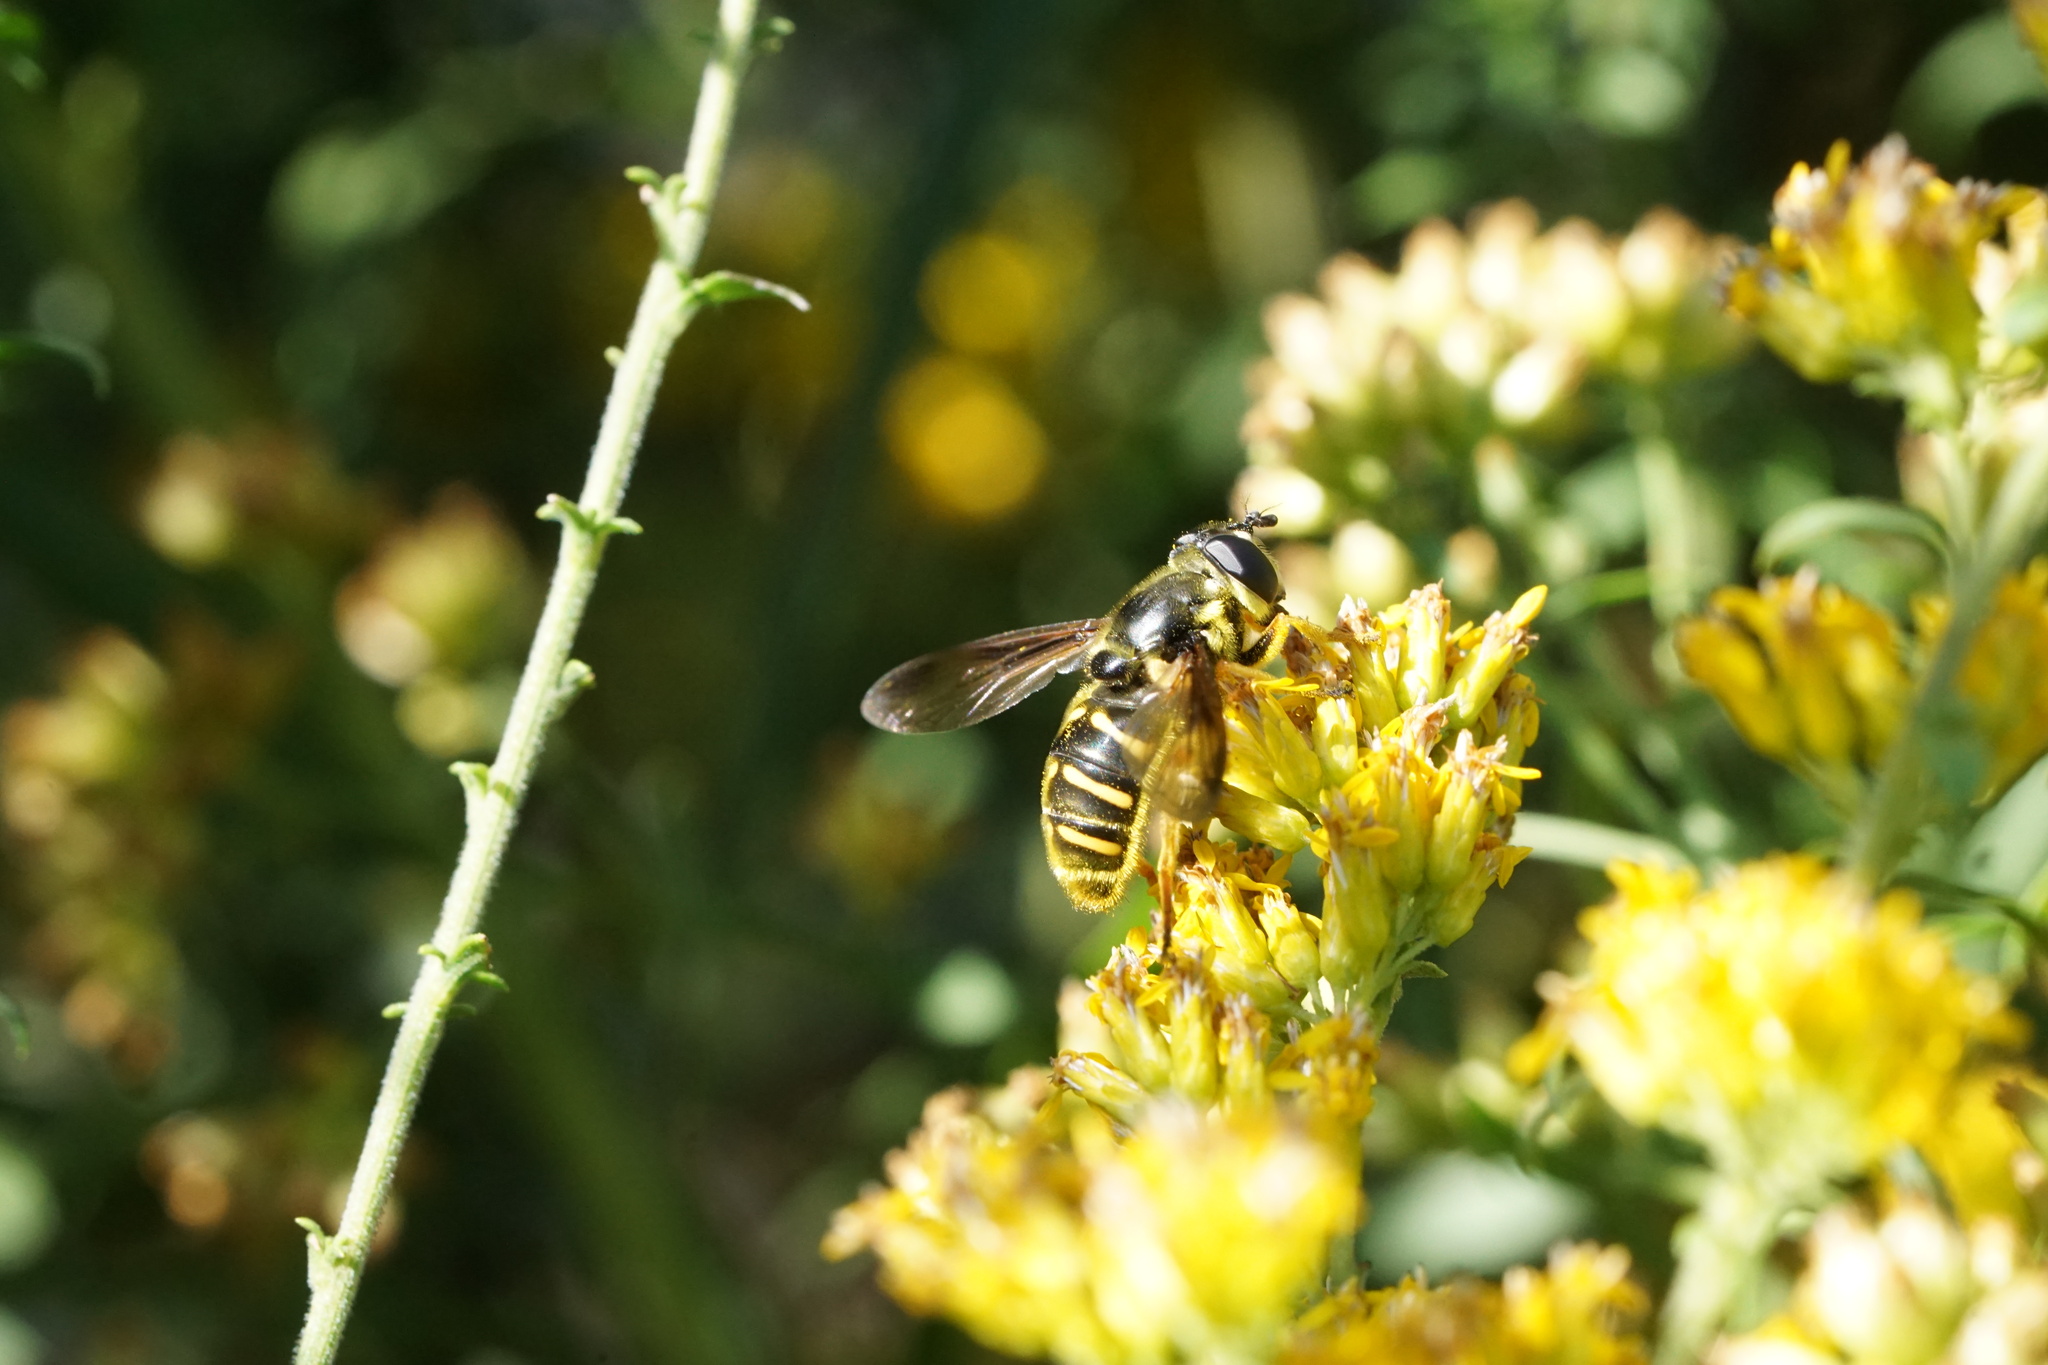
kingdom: Animalia
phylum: Arthropoda
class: Insecta
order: Diptera
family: Syrphidae
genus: Sericomyia
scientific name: Sericomyia chrysotoxoides
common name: Oblique-banded pond fly
